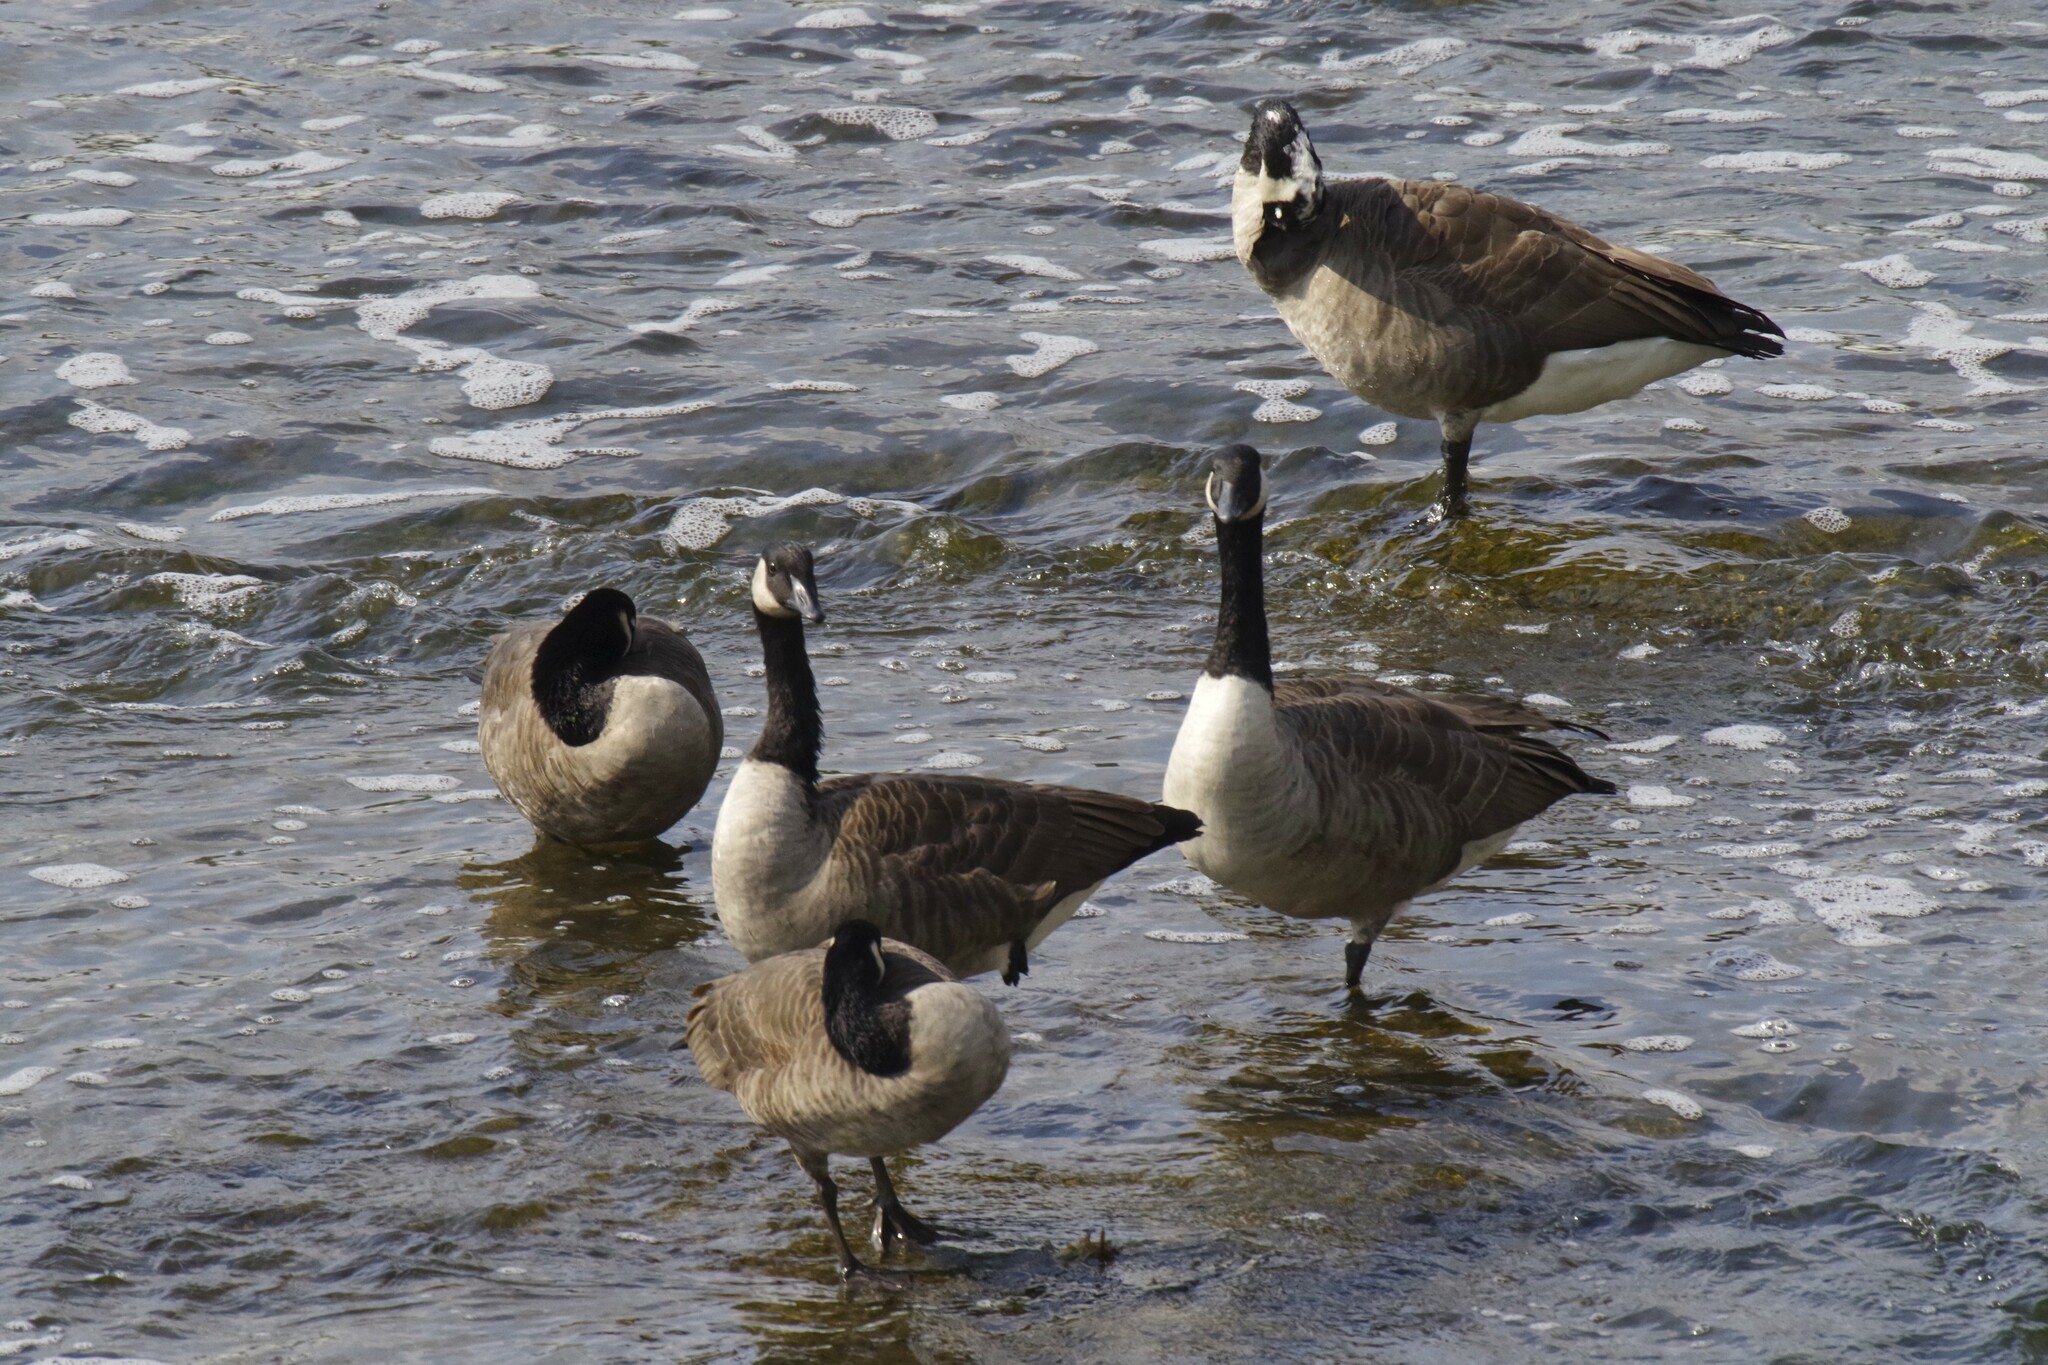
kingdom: Animalia
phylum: Chordata
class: Aves
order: Anseriformes
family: Anatidae
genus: Branta
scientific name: Branta canadensis
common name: Canada goose
